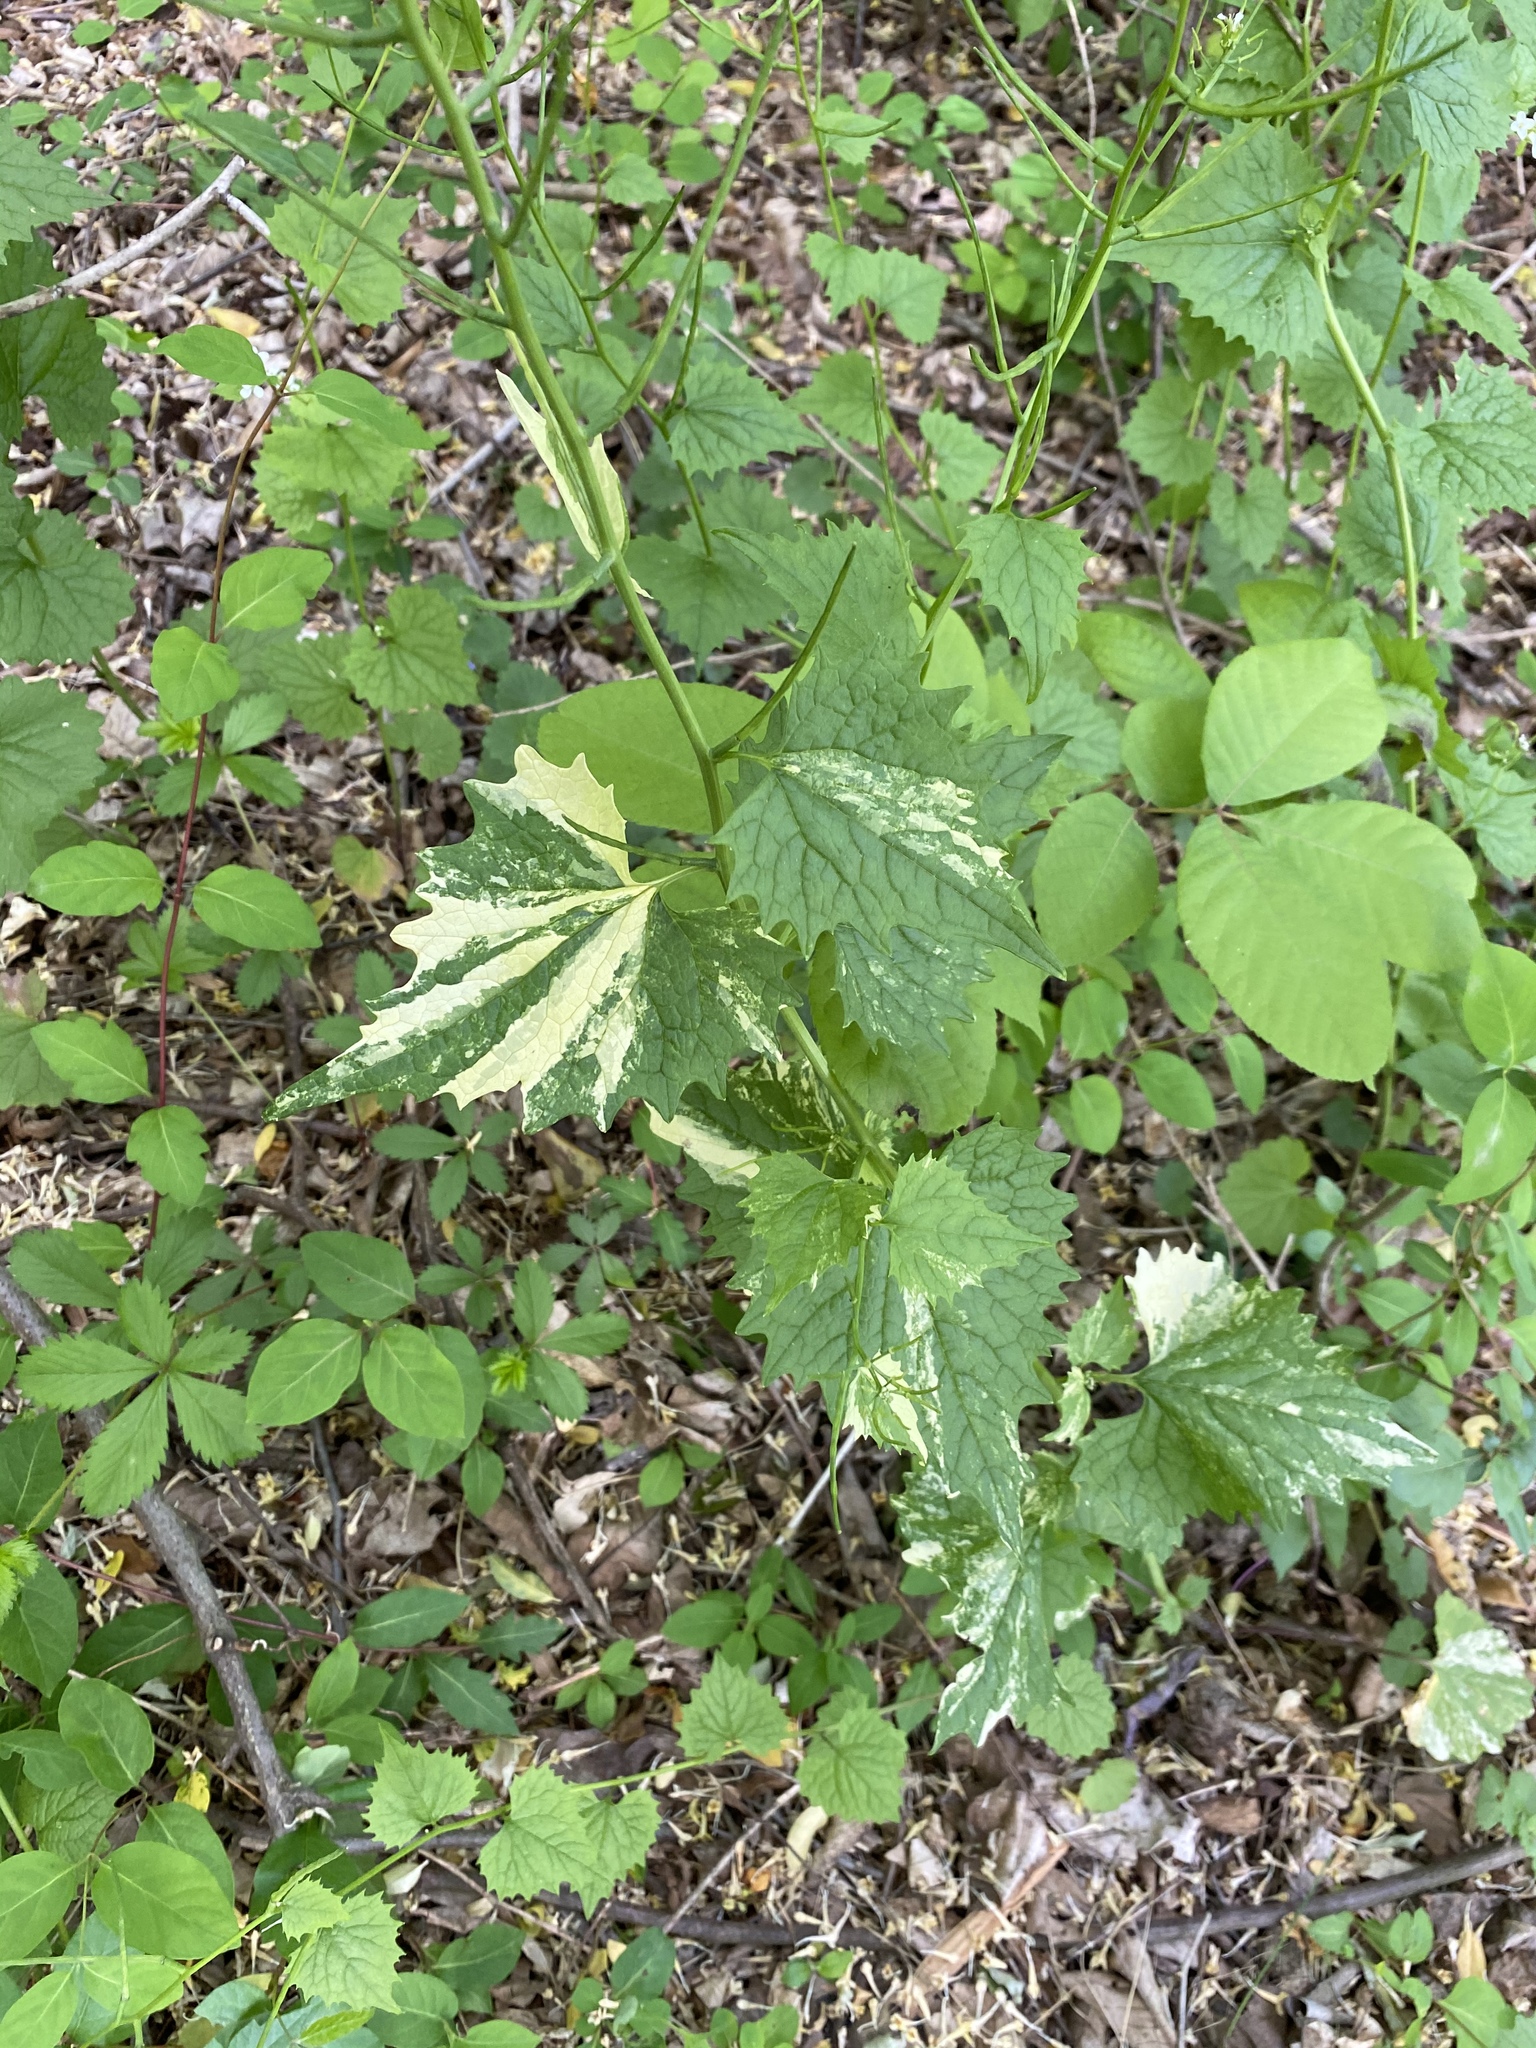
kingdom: Plantae
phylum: Tracheophyta
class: Magnoliopsida
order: Brassicales
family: Brassicaceae
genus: Alliaria
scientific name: Alliaria petiolata
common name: Garlic mustard
